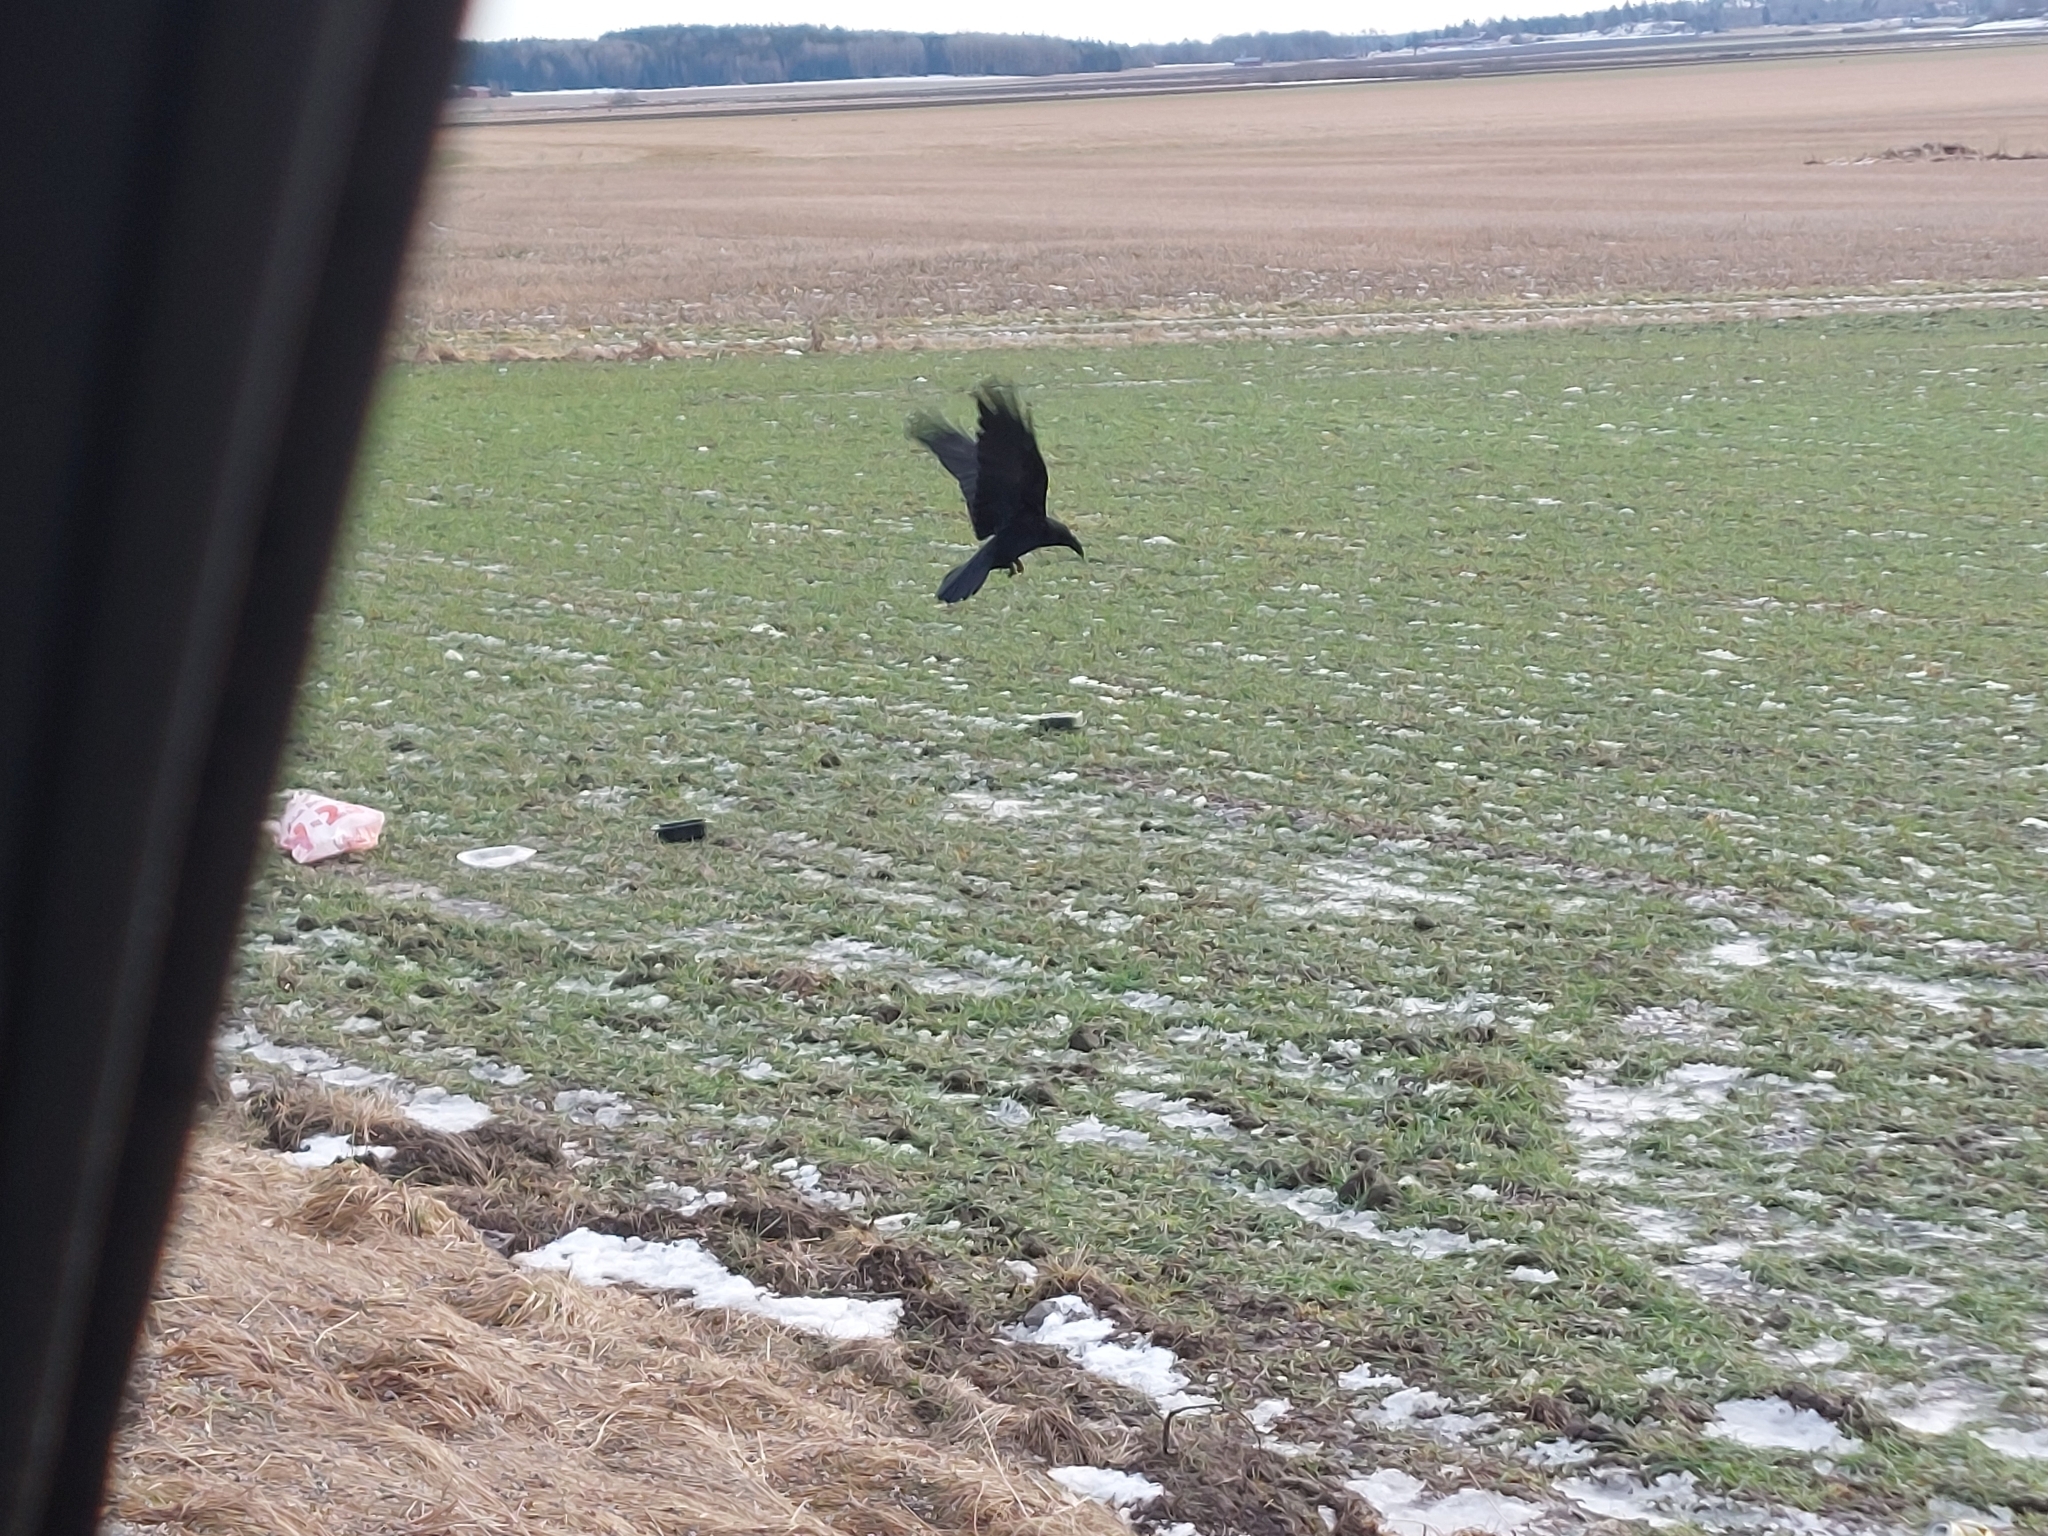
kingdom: Animalia
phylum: Chordata
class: Aves
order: Passeriformes
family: Corvidae
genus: Corvus
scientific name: Corvus corax
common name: Common raven
